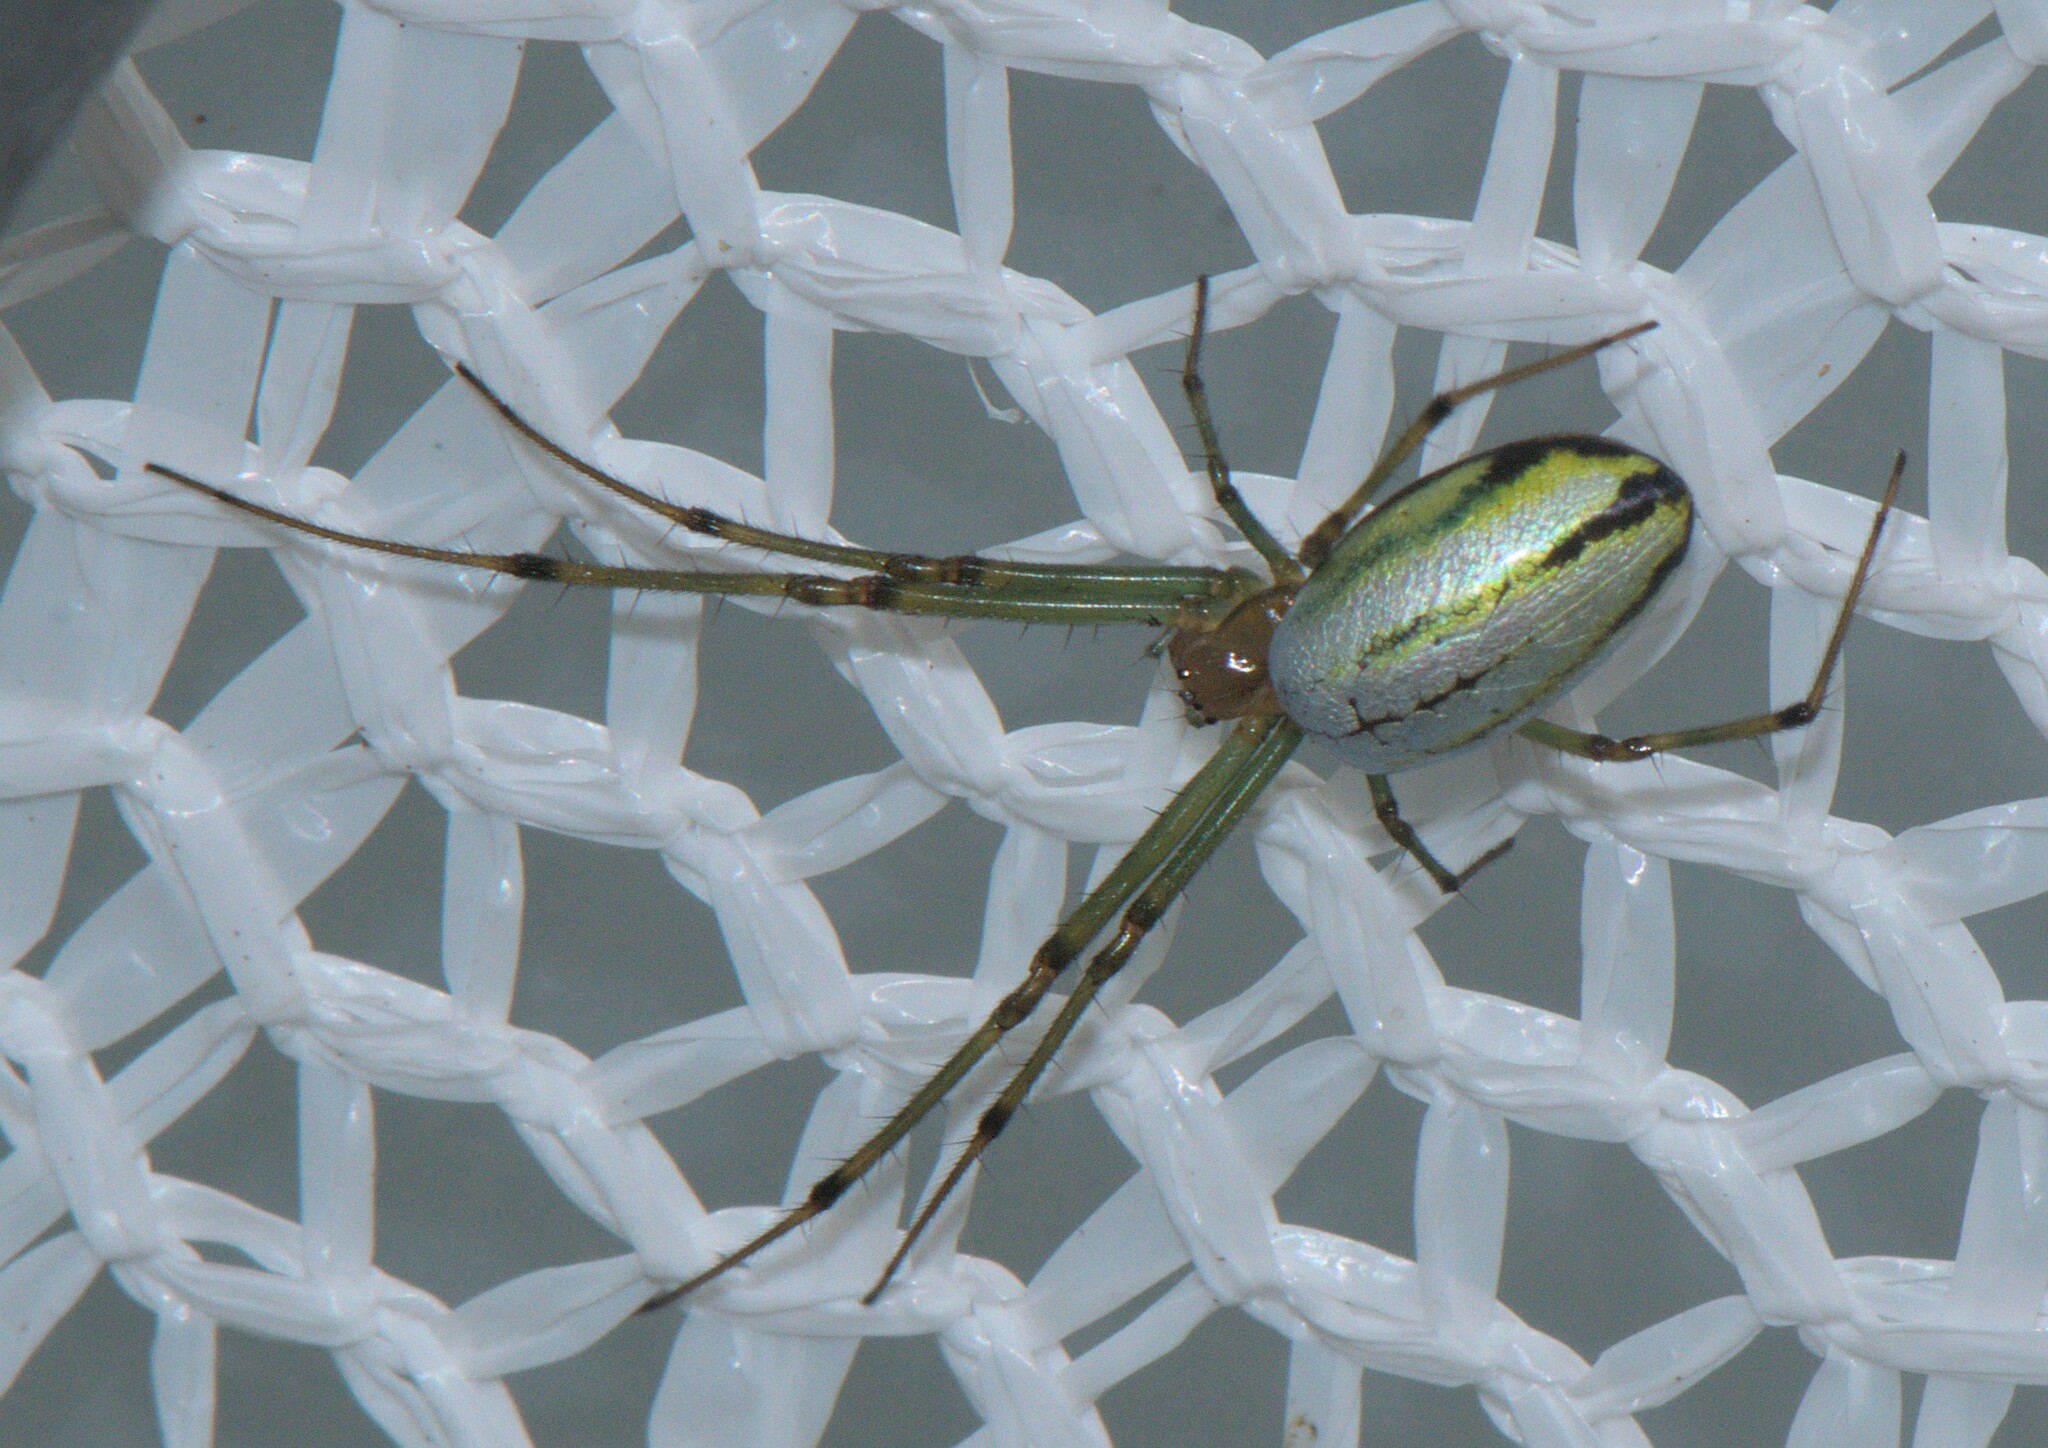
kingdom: Animalia
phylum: Arthropoda
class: Arachnida
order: Araneae
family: Tetragnathidae
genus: Leucauge
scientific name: Leucauge celebesiana
